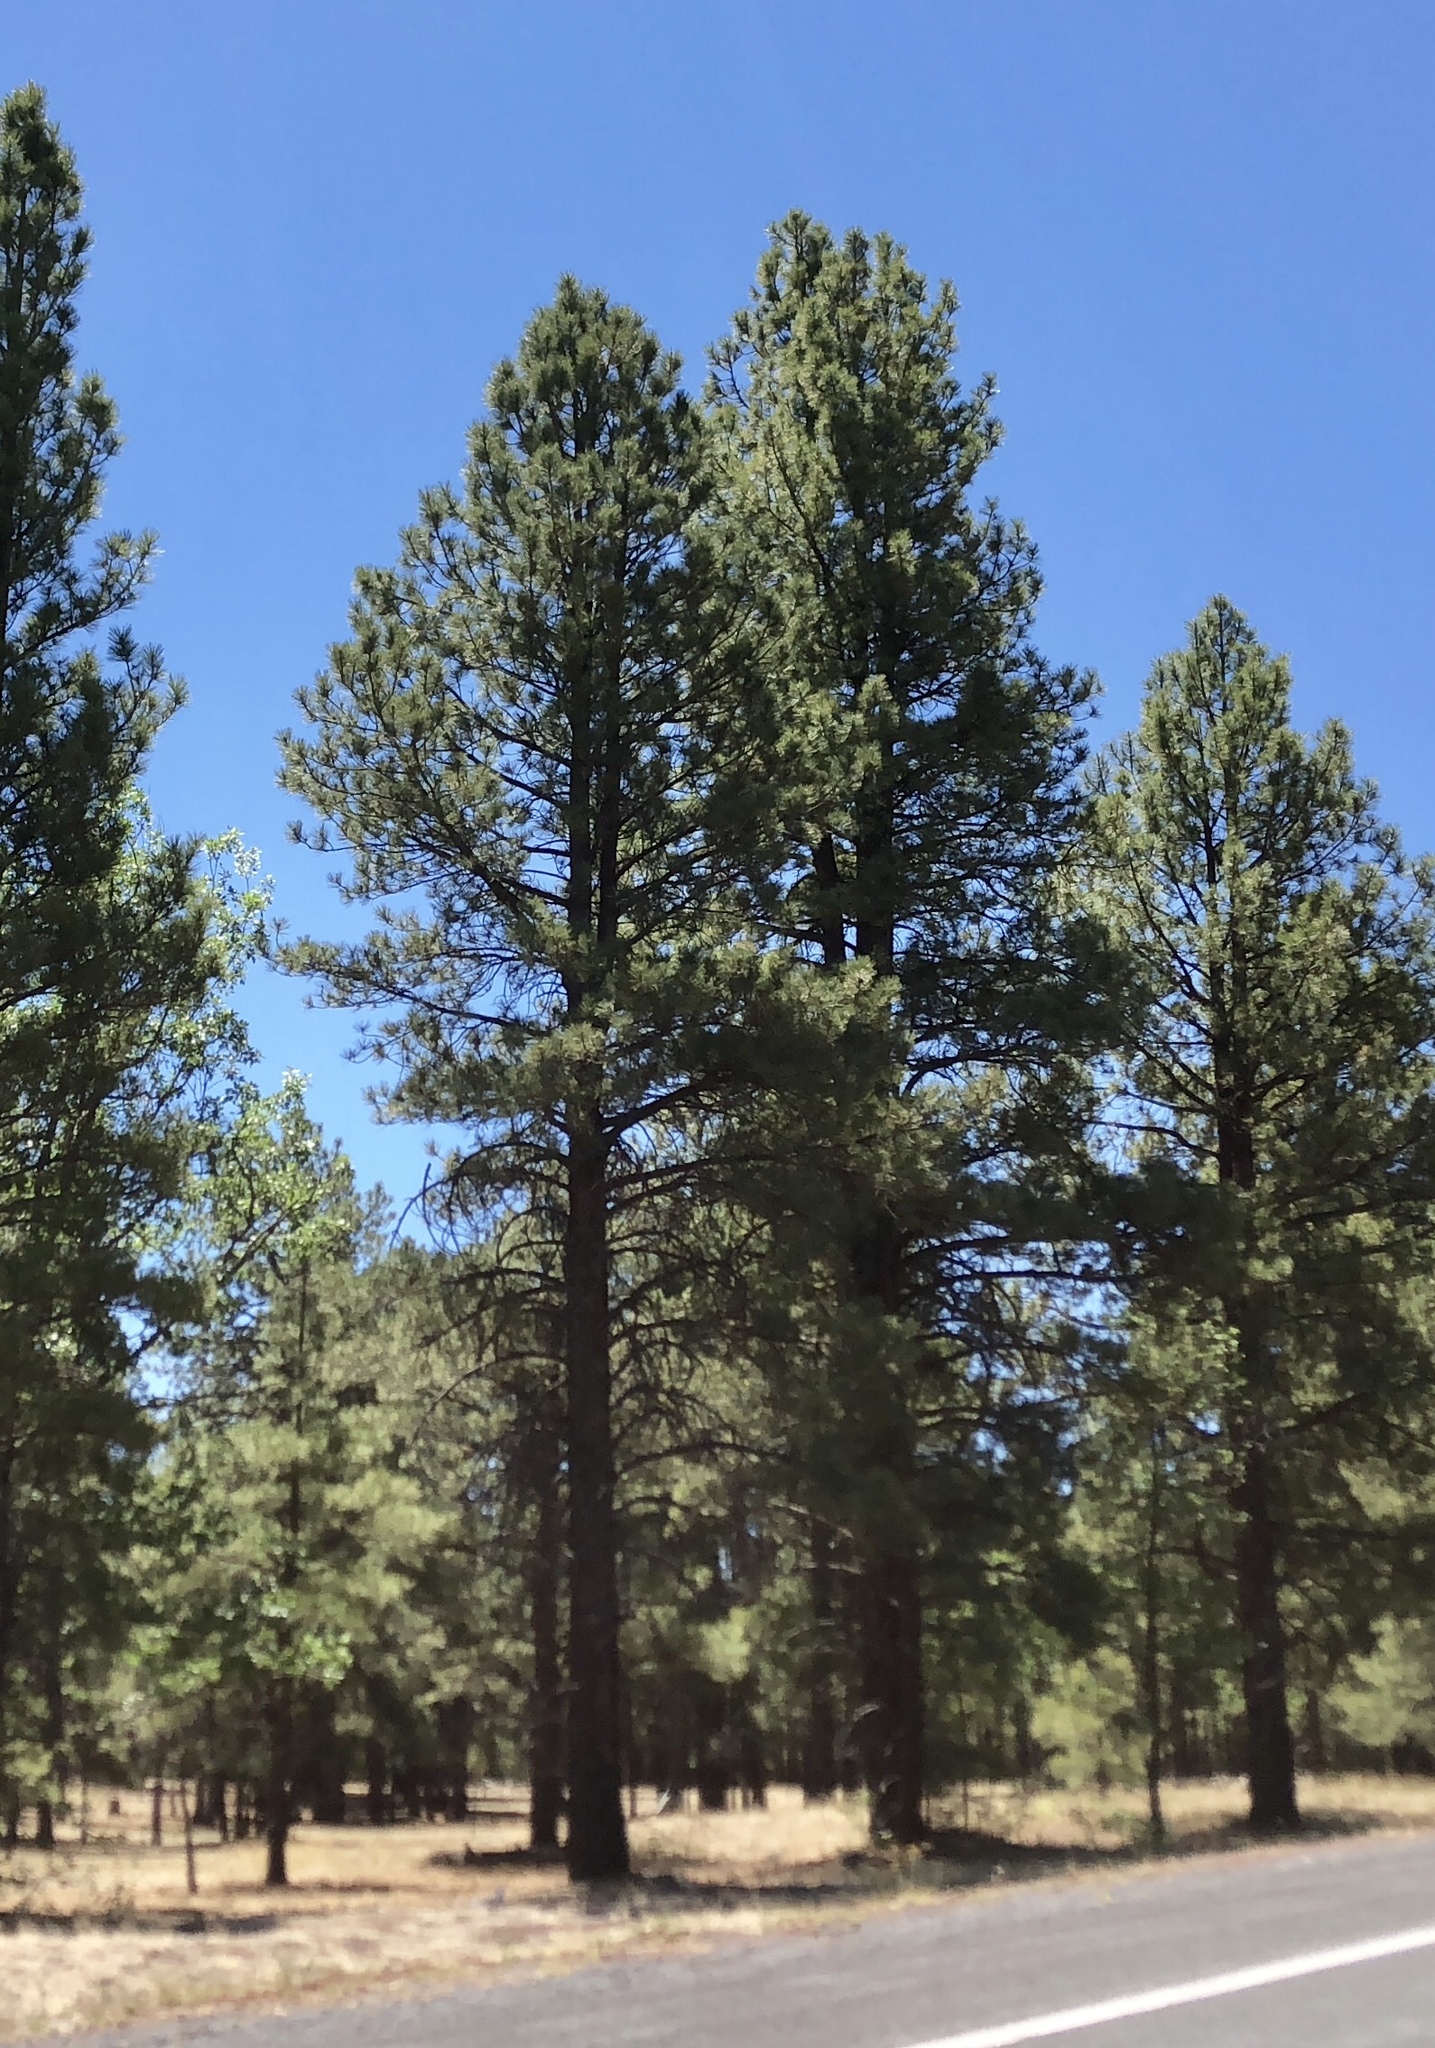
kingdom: Plantae
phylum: Tracheophyta
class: Pinopsida
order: Pinales
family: Pinaceae
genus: Pinus
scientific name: Pinus ponderosa
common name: Western yellow-pine
